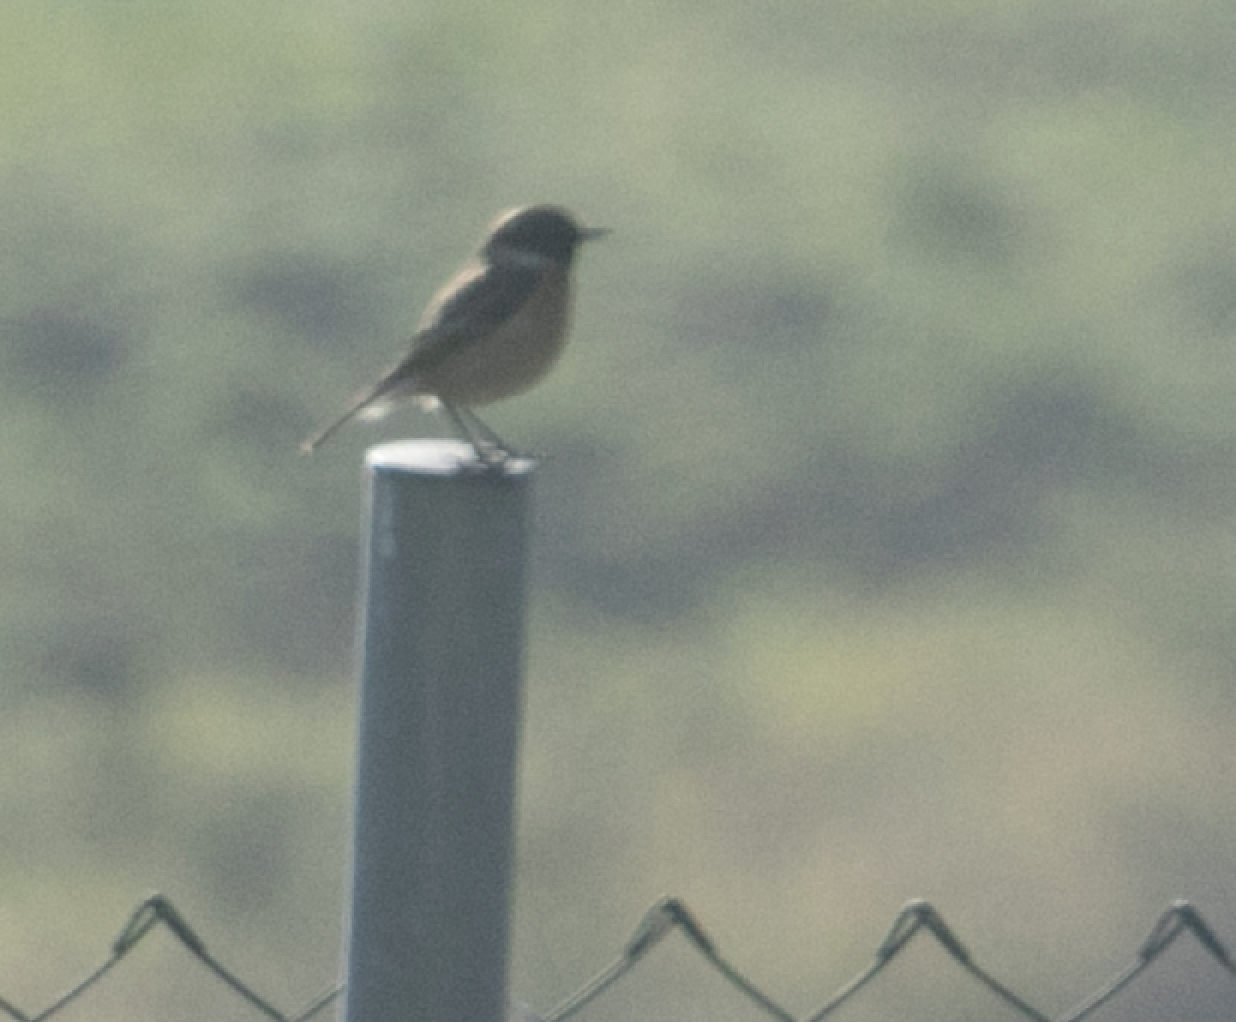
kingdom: Animalia
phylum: Chordata
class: Aves
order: Passeriformes
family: Muscicapidae
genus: Saxicola
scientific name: Saxicola rubicola
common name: European stonechat
